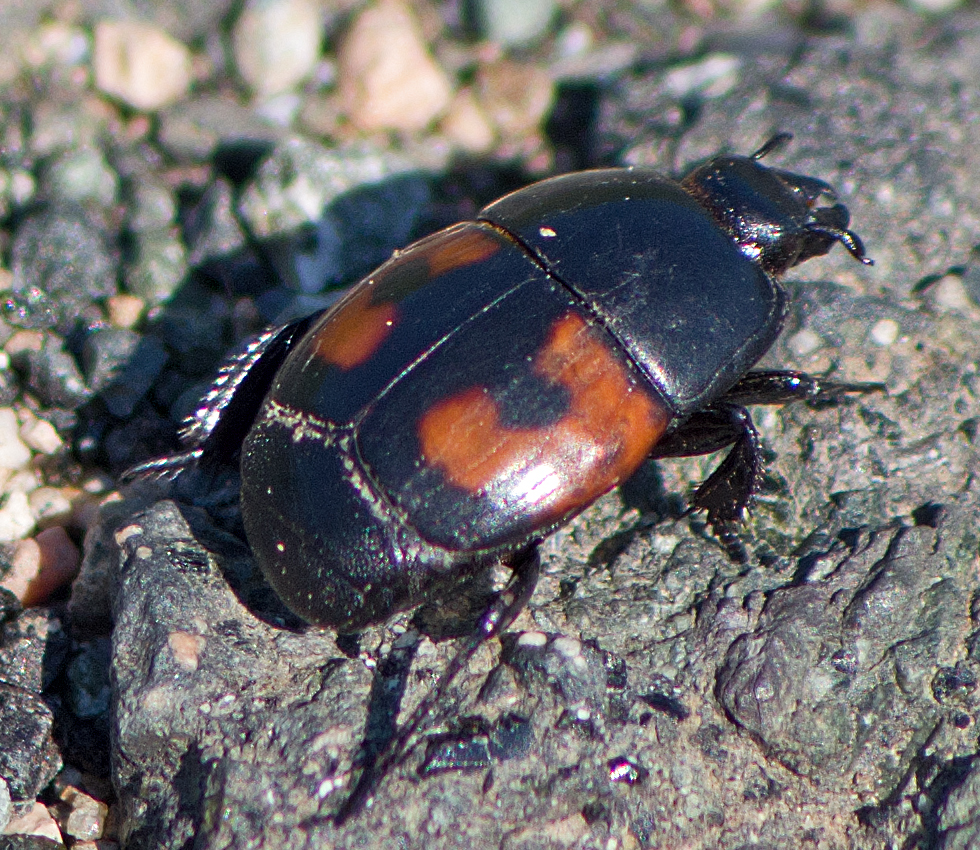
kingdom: Animalia
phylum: Arthropoda
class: Insecta
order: Coleoptera
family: Histeridae
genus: Hister
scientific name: Hister quadrimaculatus
